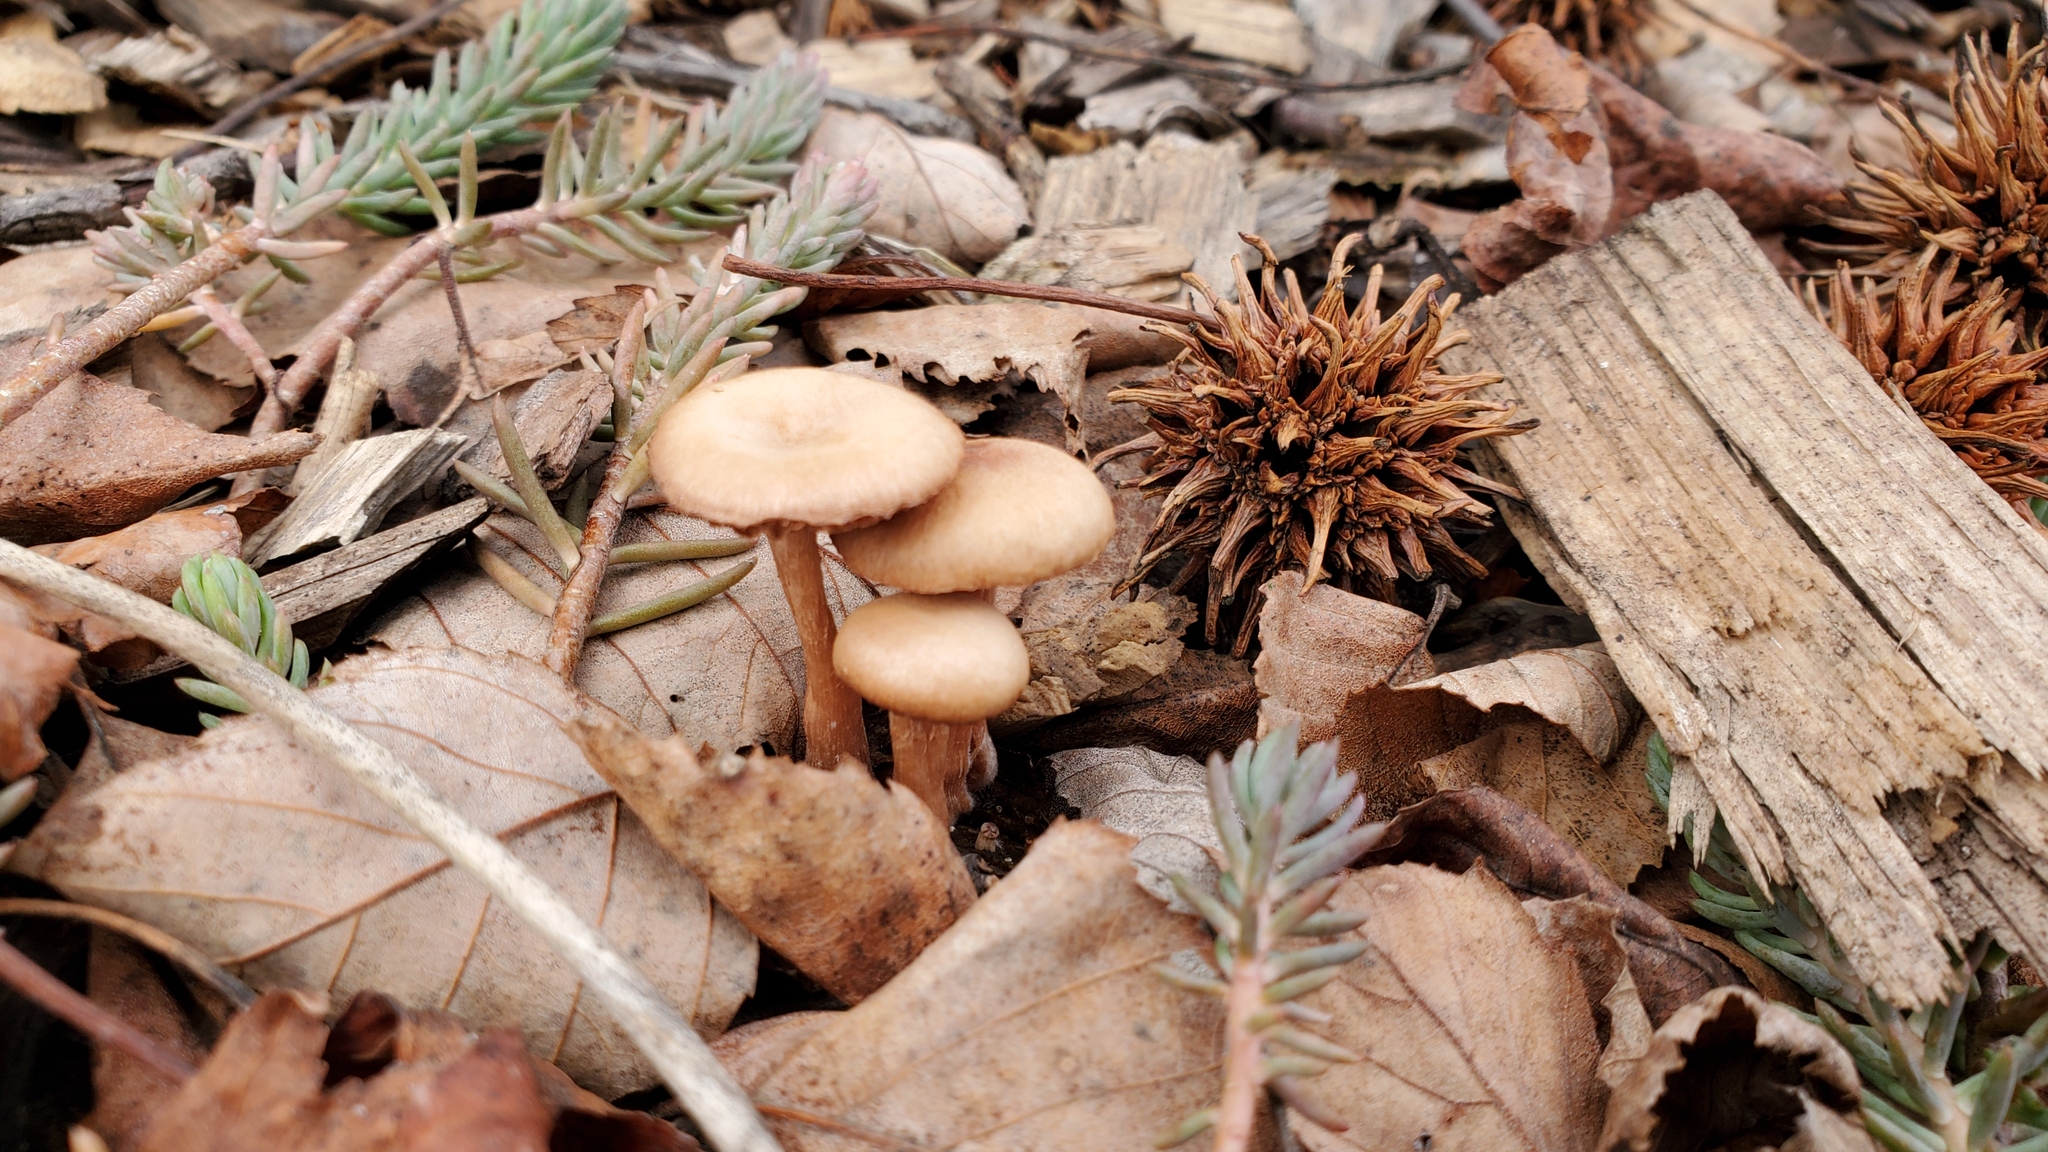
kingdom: Fungi
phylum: Basidiomycota
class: Agaricomycetes
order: Agaricales
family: Hydnangiaceae
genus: Laccaria
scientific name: Laccaria laccata
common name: Deceiver
